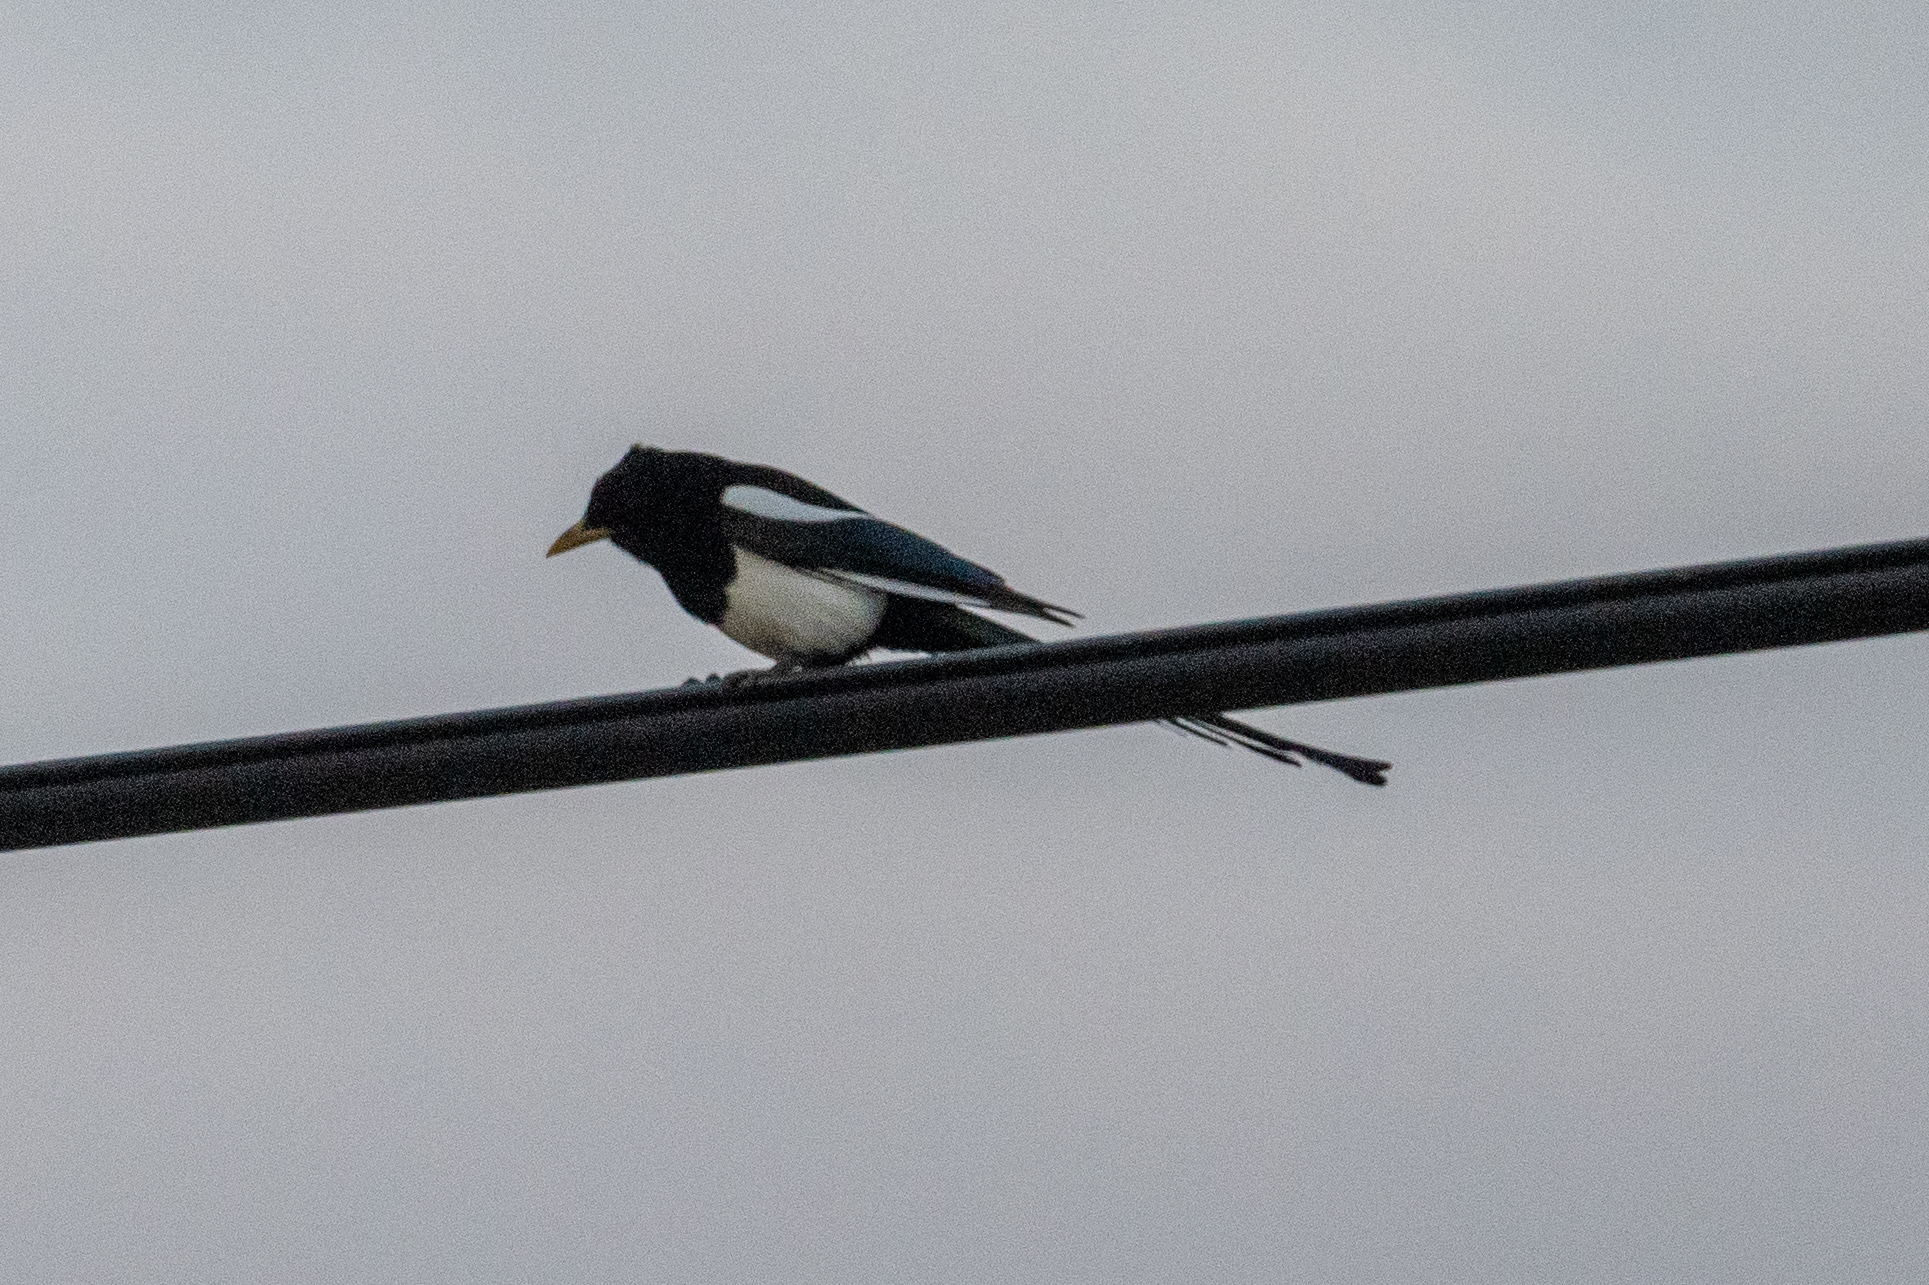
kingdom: Animalia
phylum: Chordata
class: Aves
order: Passeriformes
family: Corvidae
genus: Pica
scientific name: Pica nuttalli
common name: Yellow-billed magpie
